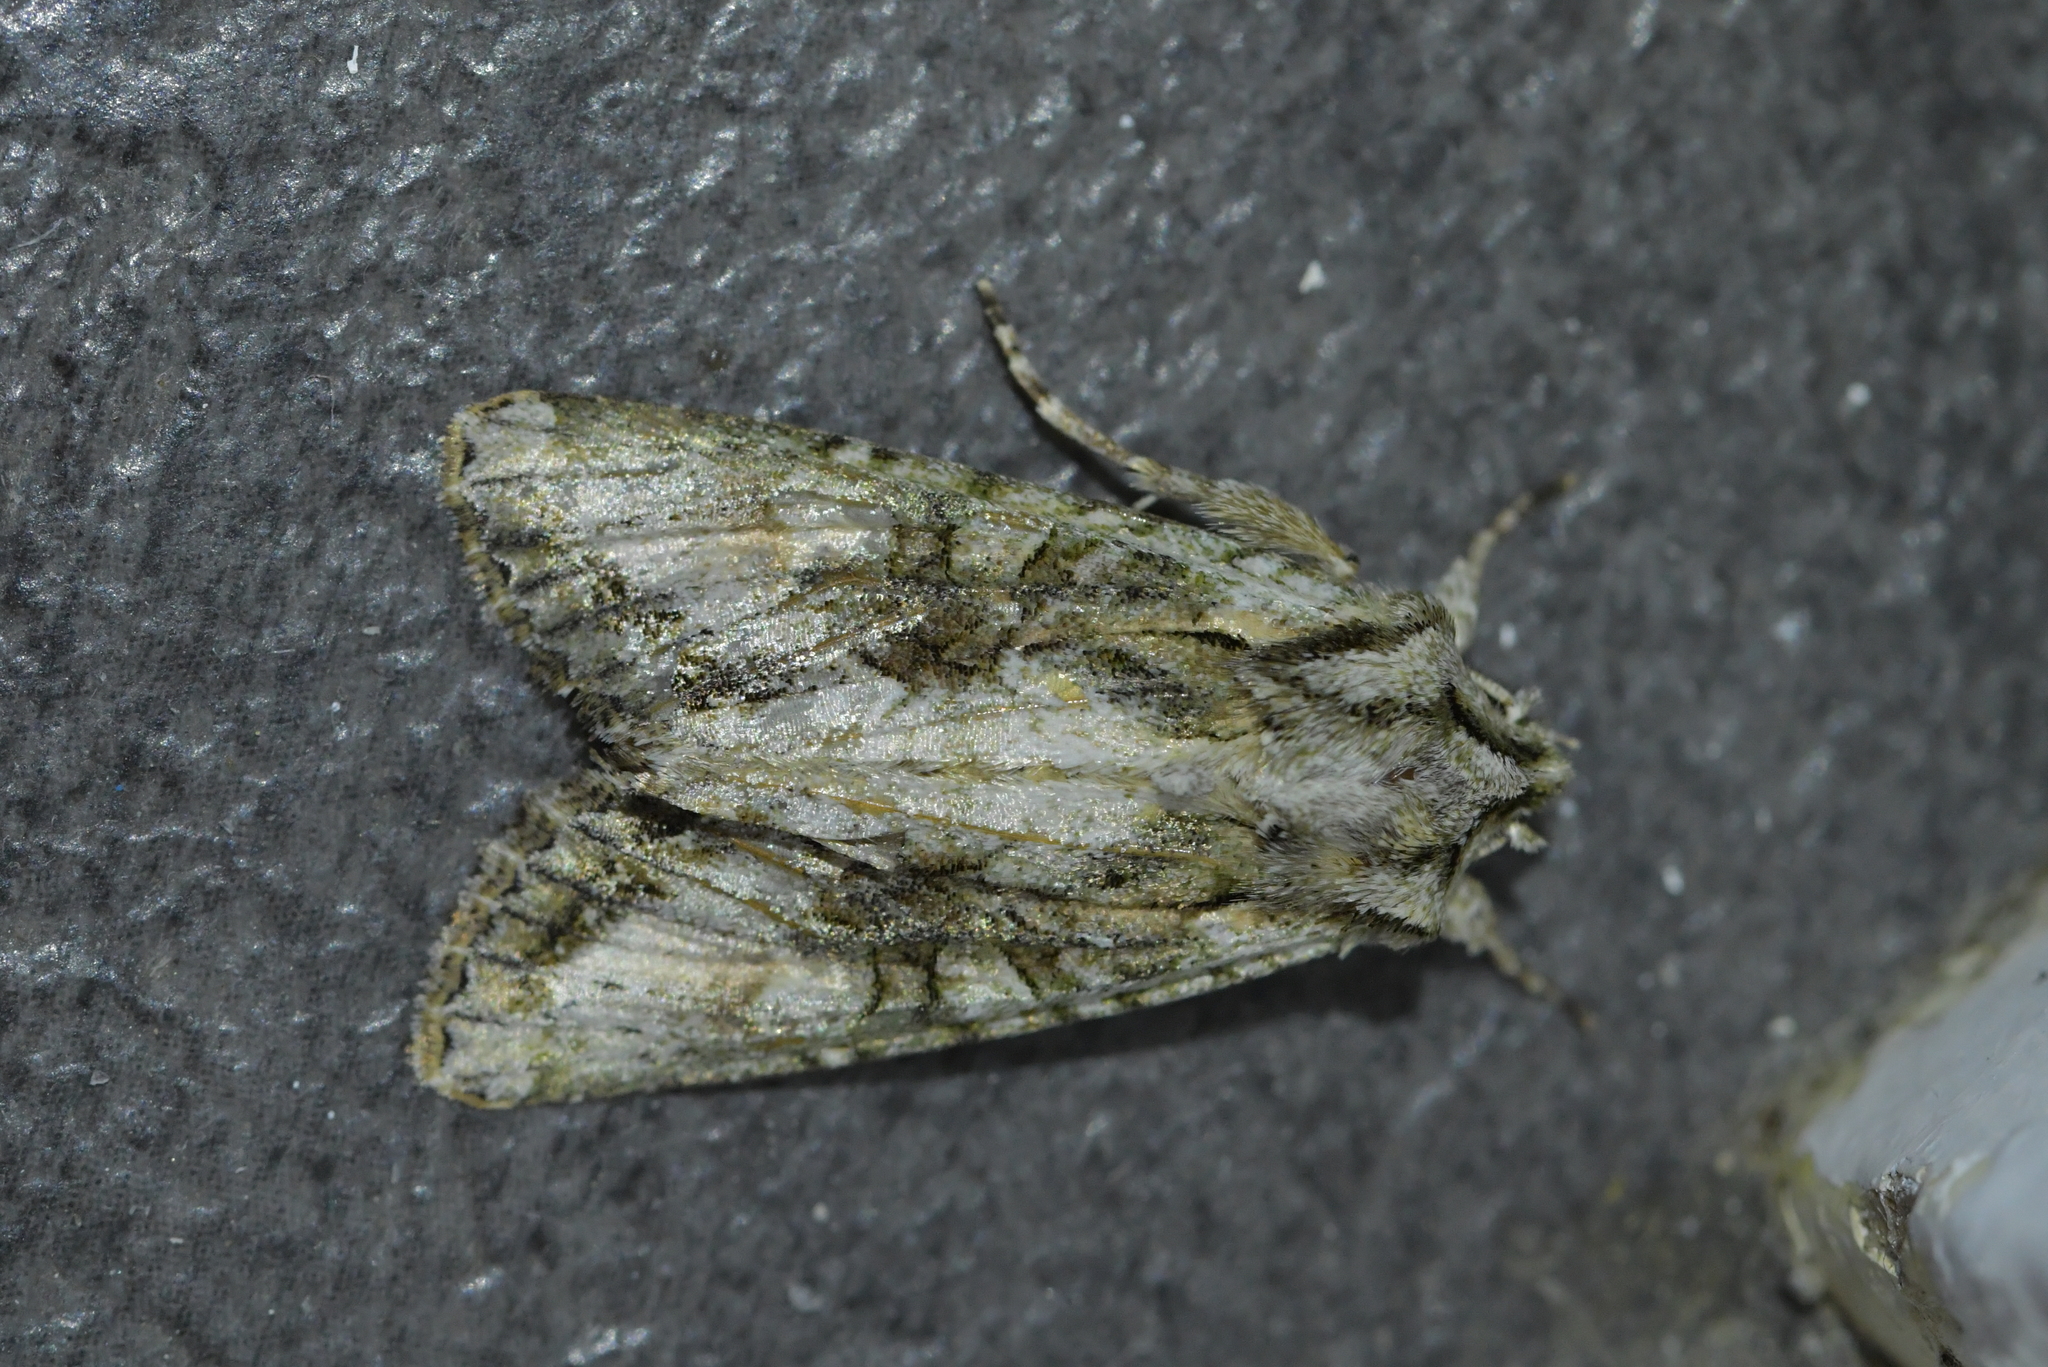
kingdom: Animalia
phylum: Arthropoda
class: Insecta
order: Lepidoptera
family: Noctuidae
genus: Ichneutica
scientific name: Ichneutica mutans
